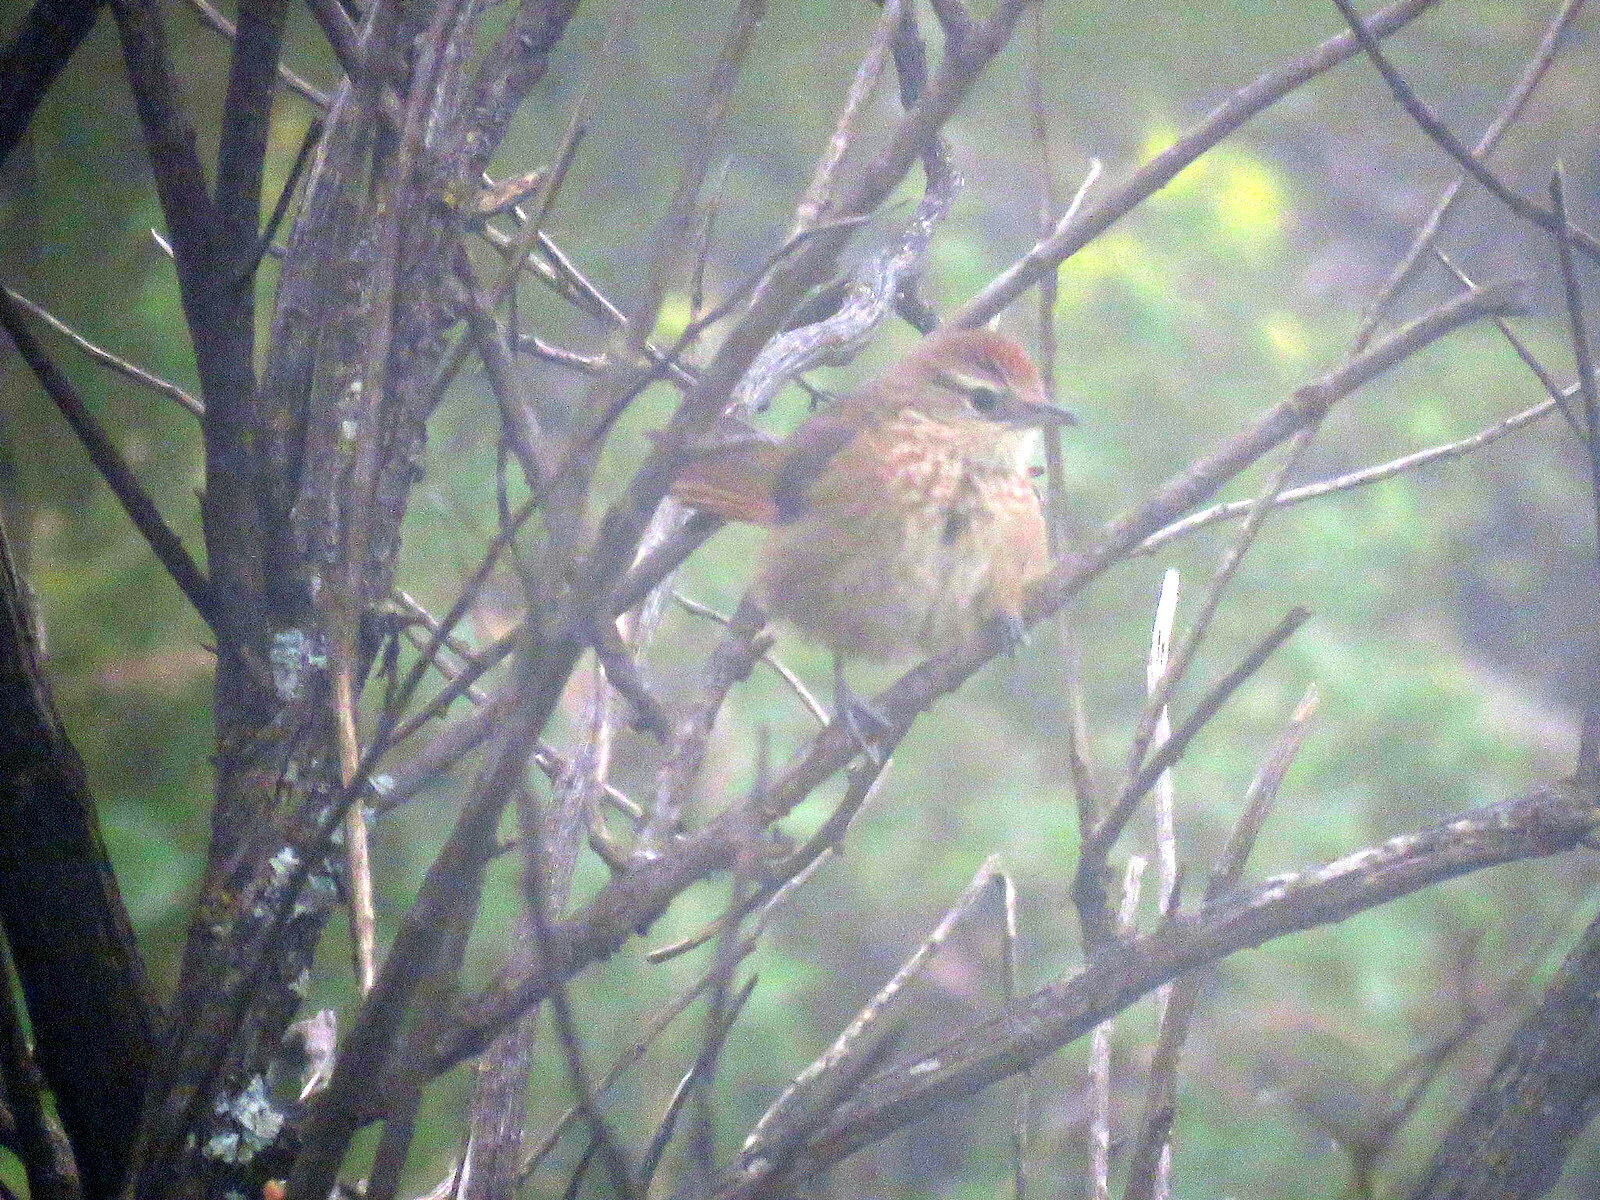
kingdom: Animalia
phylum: Chordata
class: Aves
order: Passeriformes
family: Furnariidae
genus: Phacellodomus
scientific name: Phacellodomus maculipectus
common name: Spot-breasted thornbird
